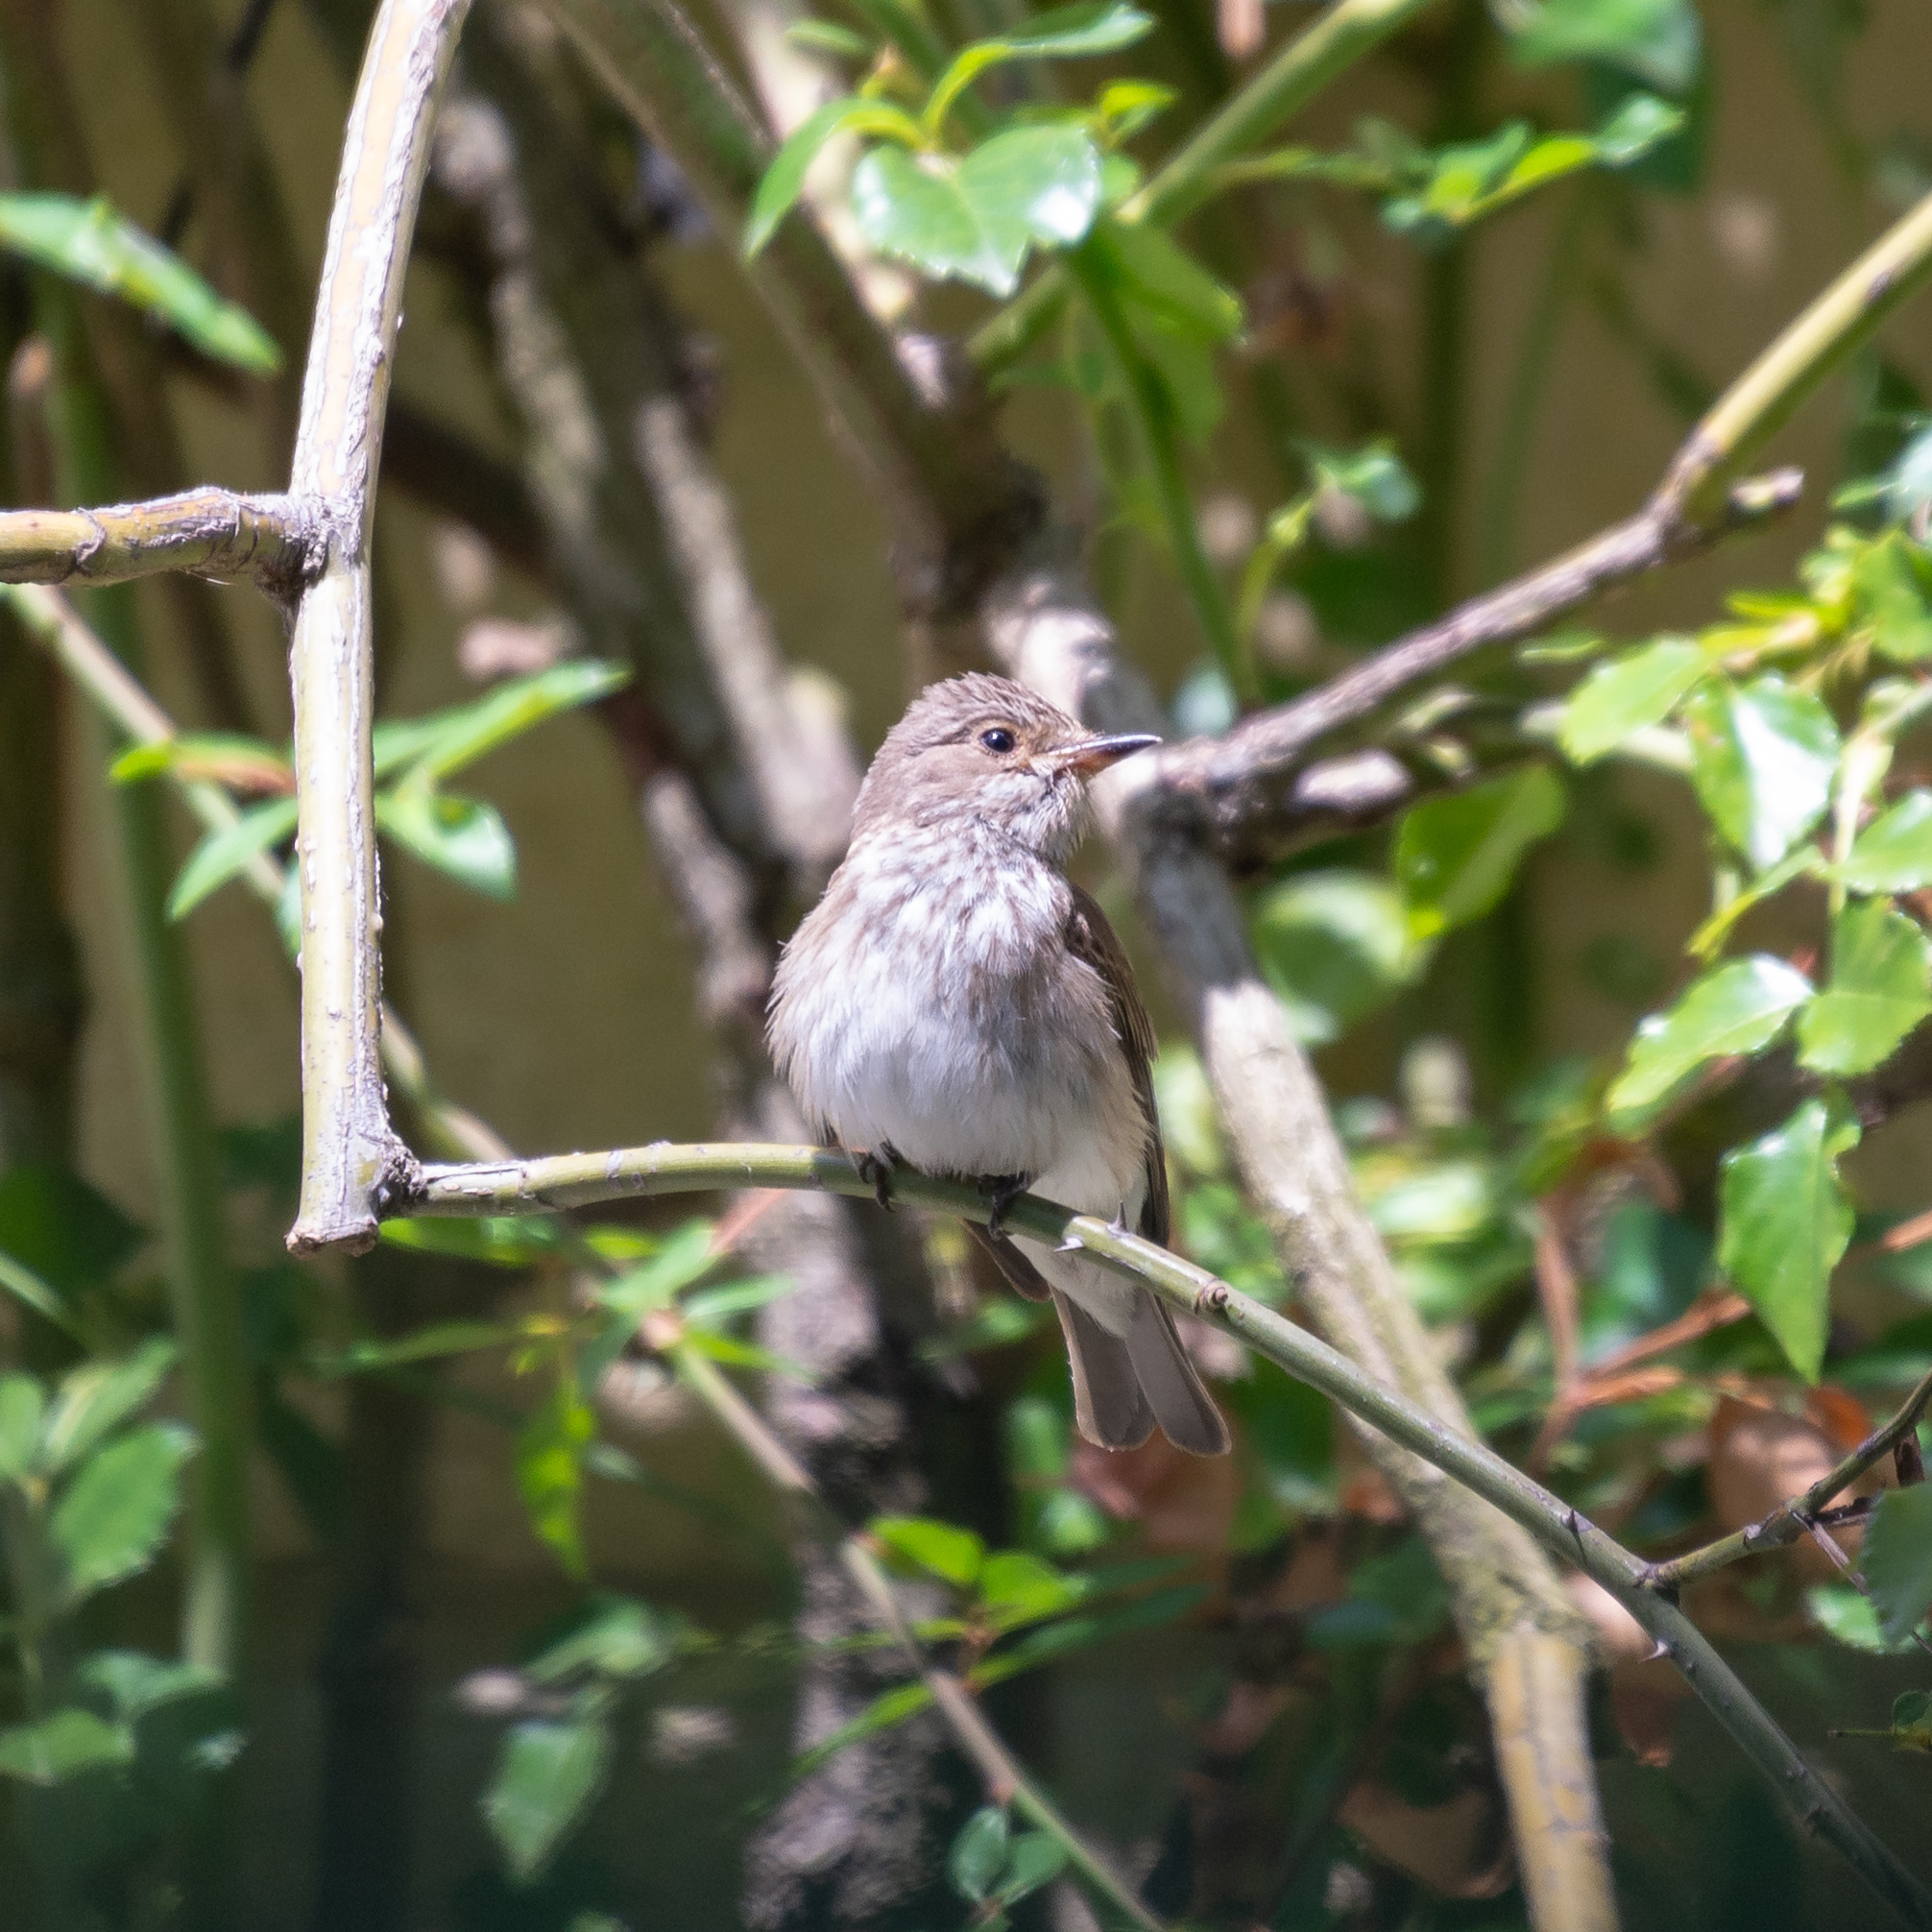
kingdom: Animalia
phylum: Chordata
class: Aves
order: Passeriformes
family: Muscicapidae
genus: Muscicapa
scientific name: Muscicapa striata
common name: Spotted flycatcher
